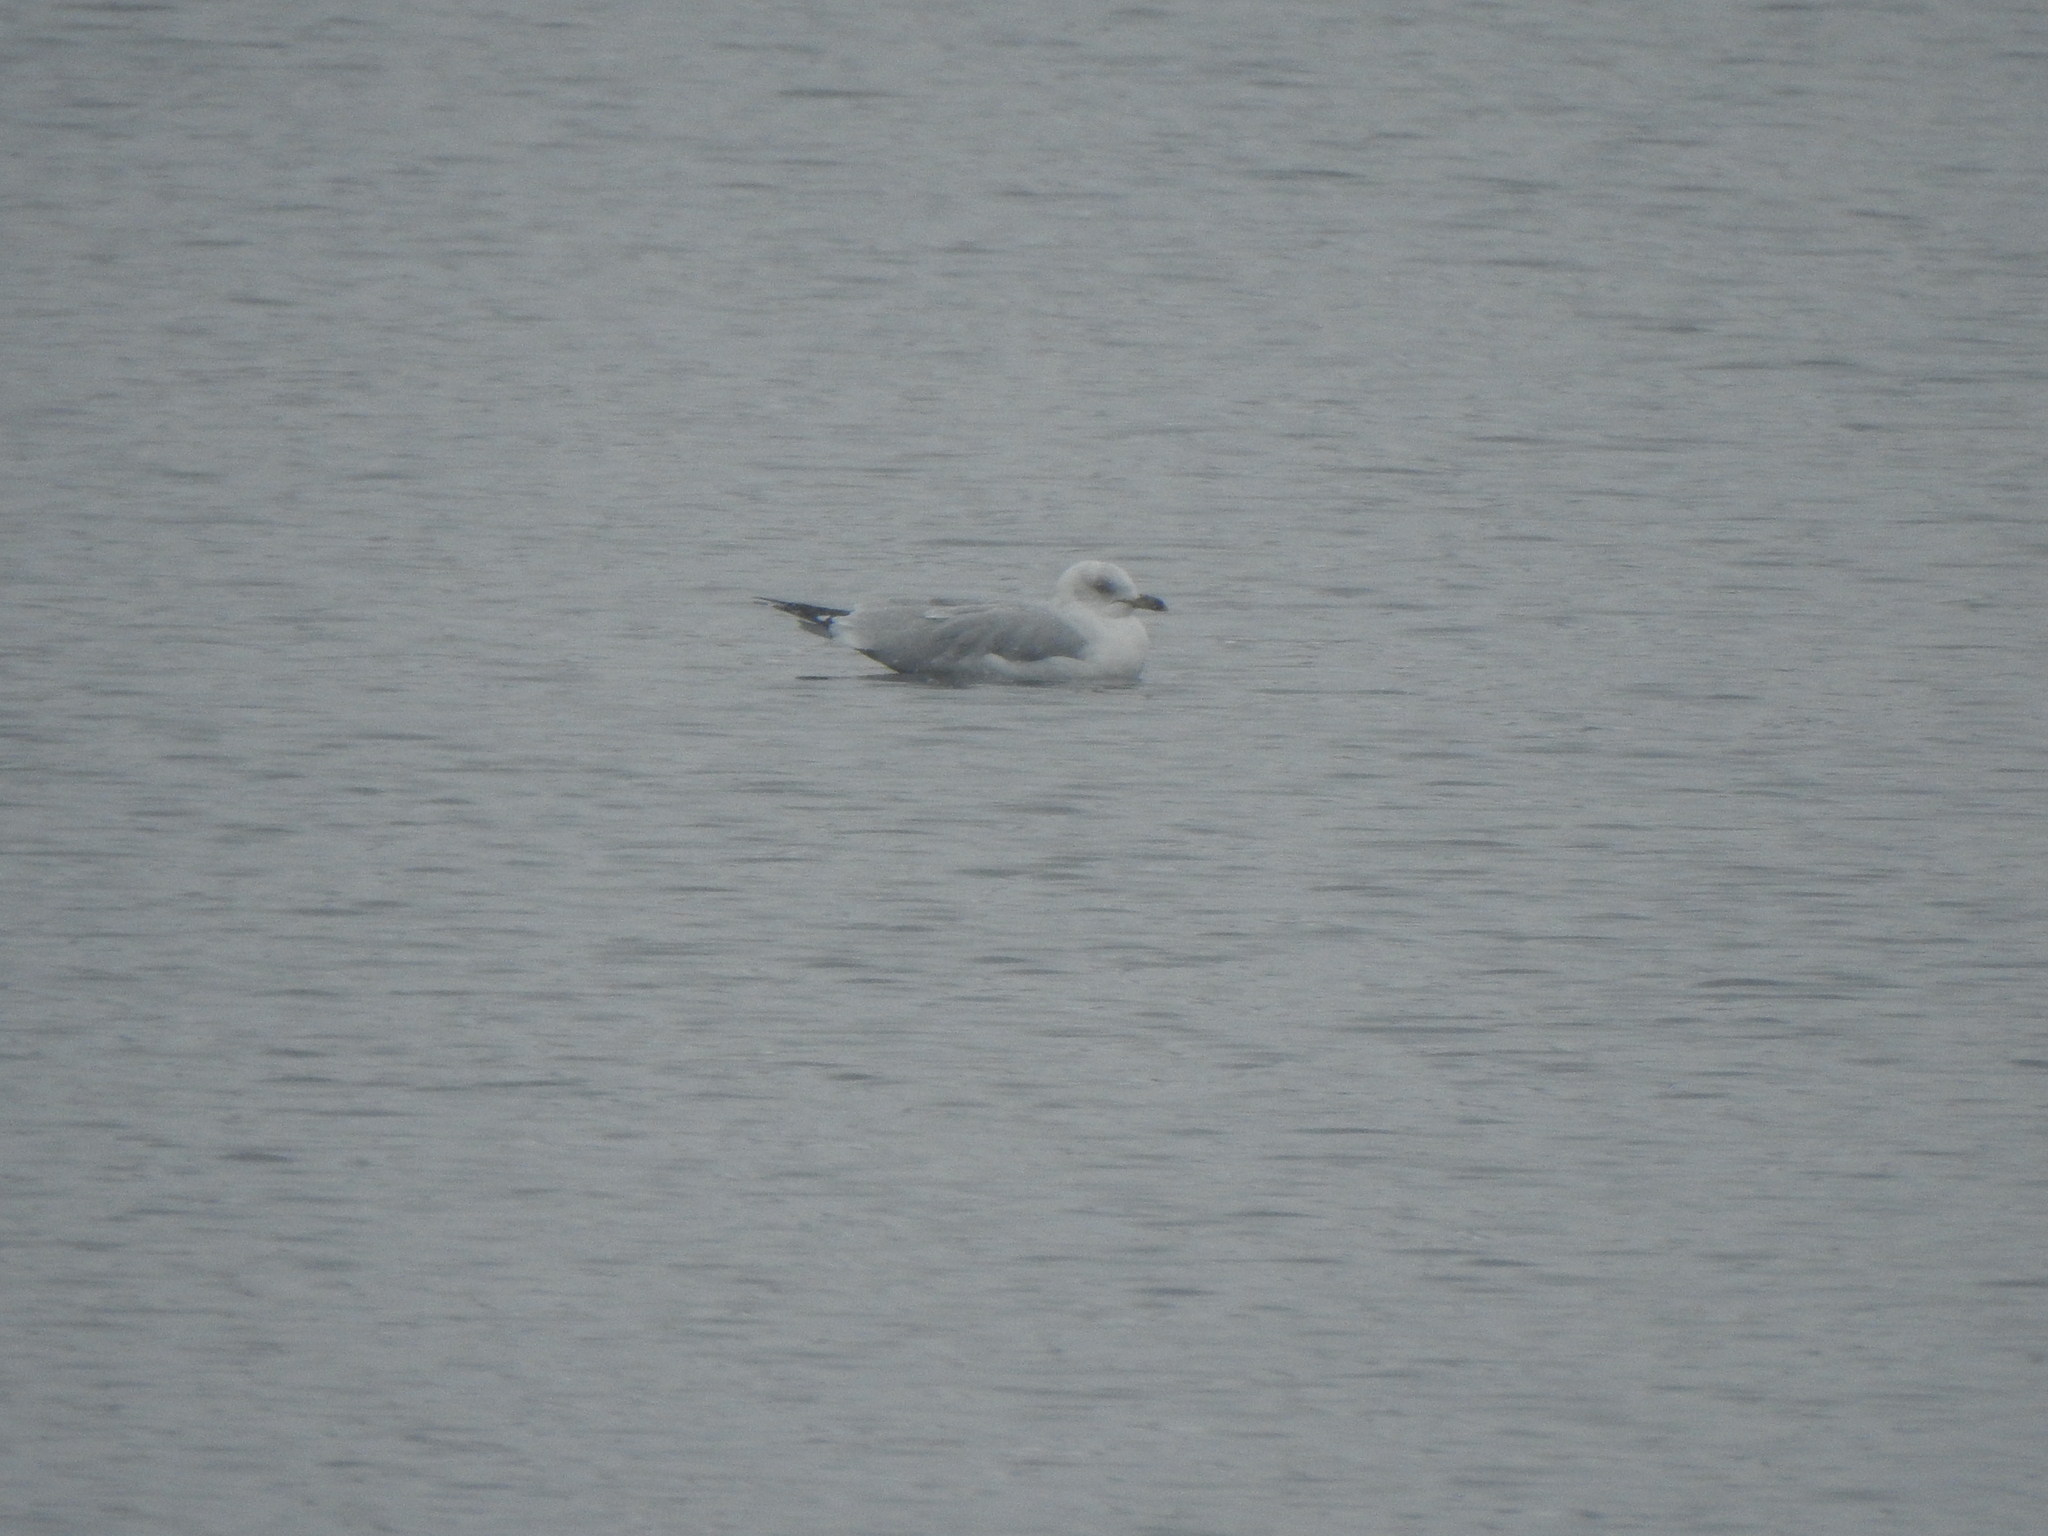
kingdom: Animalia
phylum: Chordata
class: Aves
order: Charadriiformes
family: Laridae
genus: Larus
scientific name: Larus delawarensis
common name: Ring-billed gull
